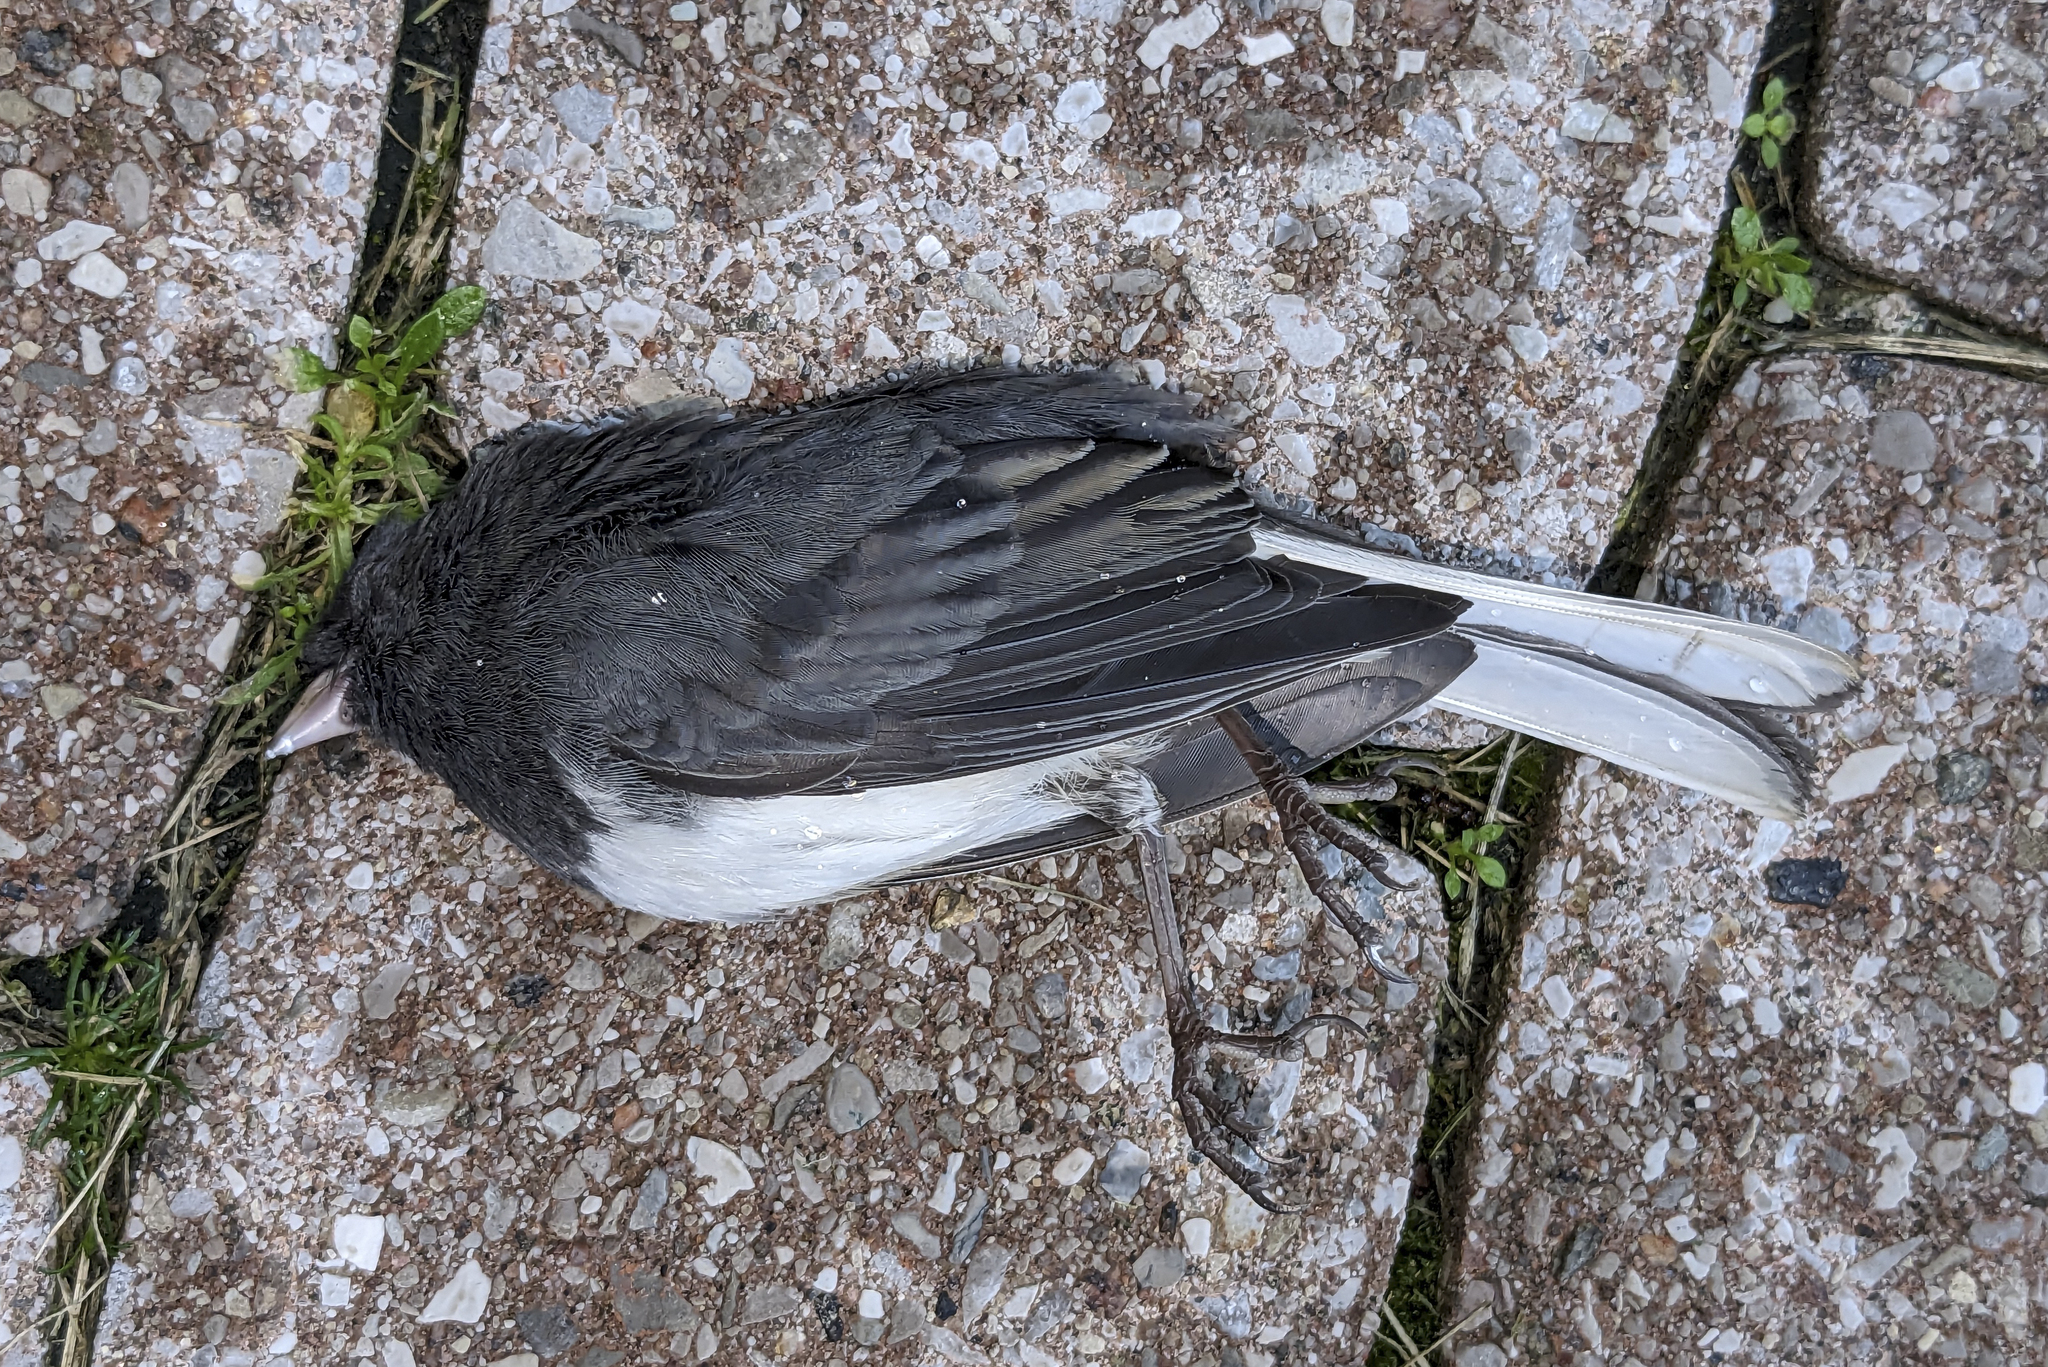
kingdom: Animalia
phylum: Chordata
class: Aves
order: Passeriformes
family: Passerellidae
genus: Junco
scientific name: Junco hyemalis
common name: Dark-eyed junco
